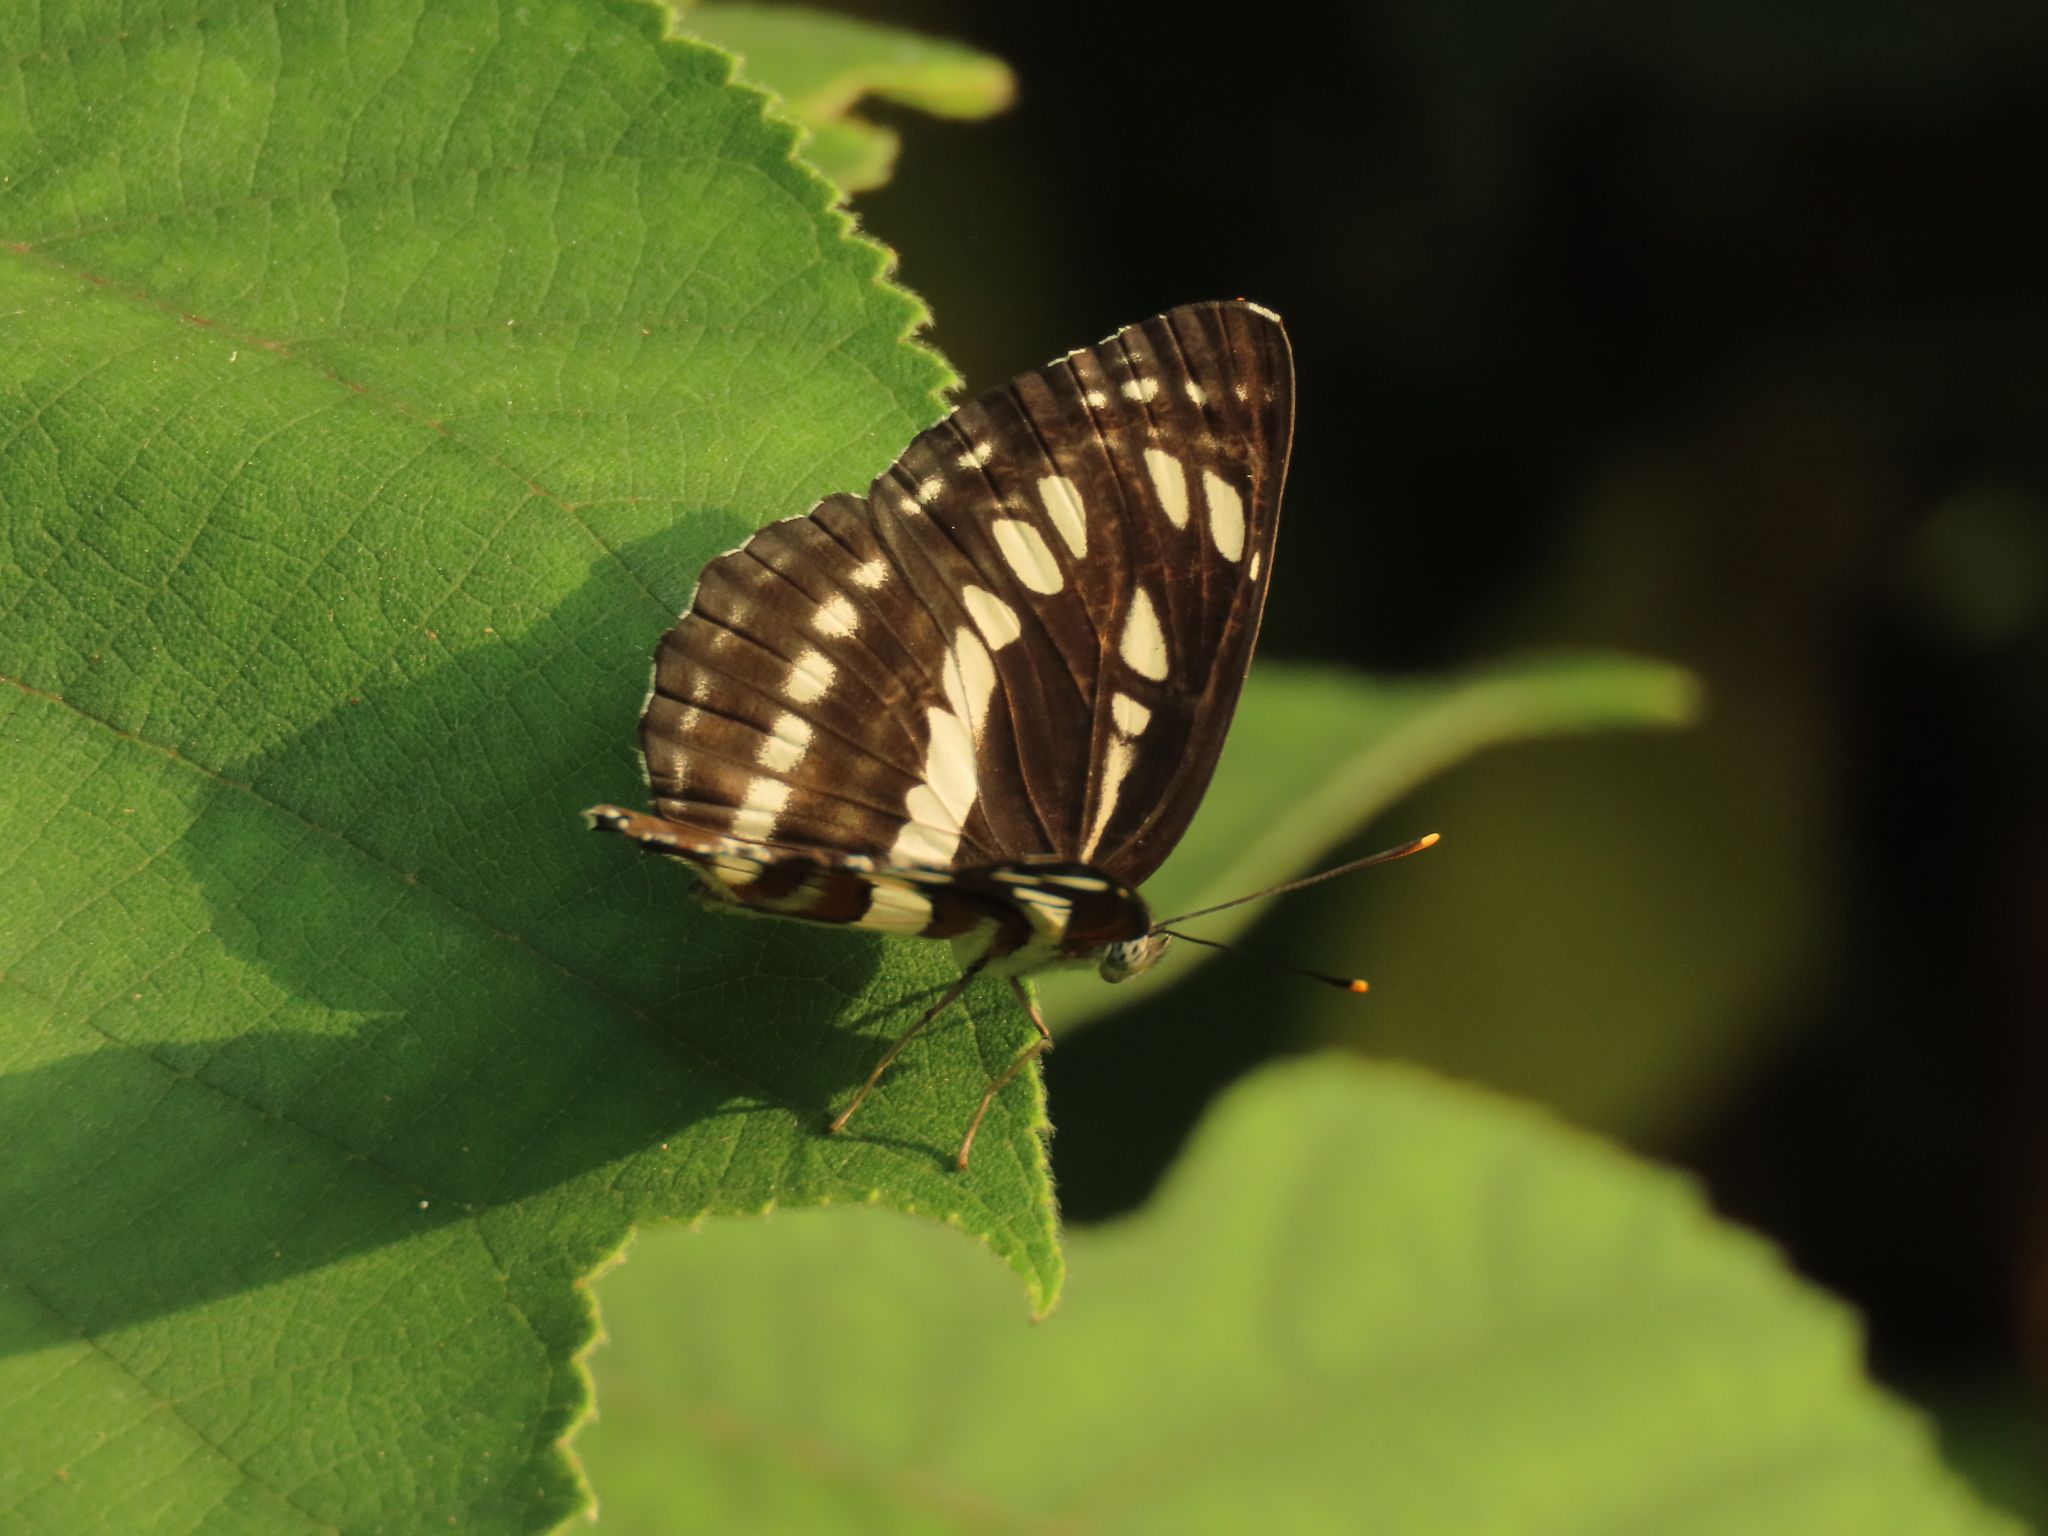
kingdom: Animalia
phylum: Arthropoda
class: Insecta
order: Lepidoptera
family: Nymphalidae
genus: Neptis
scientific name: Neptis hylas
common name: Common sailer
